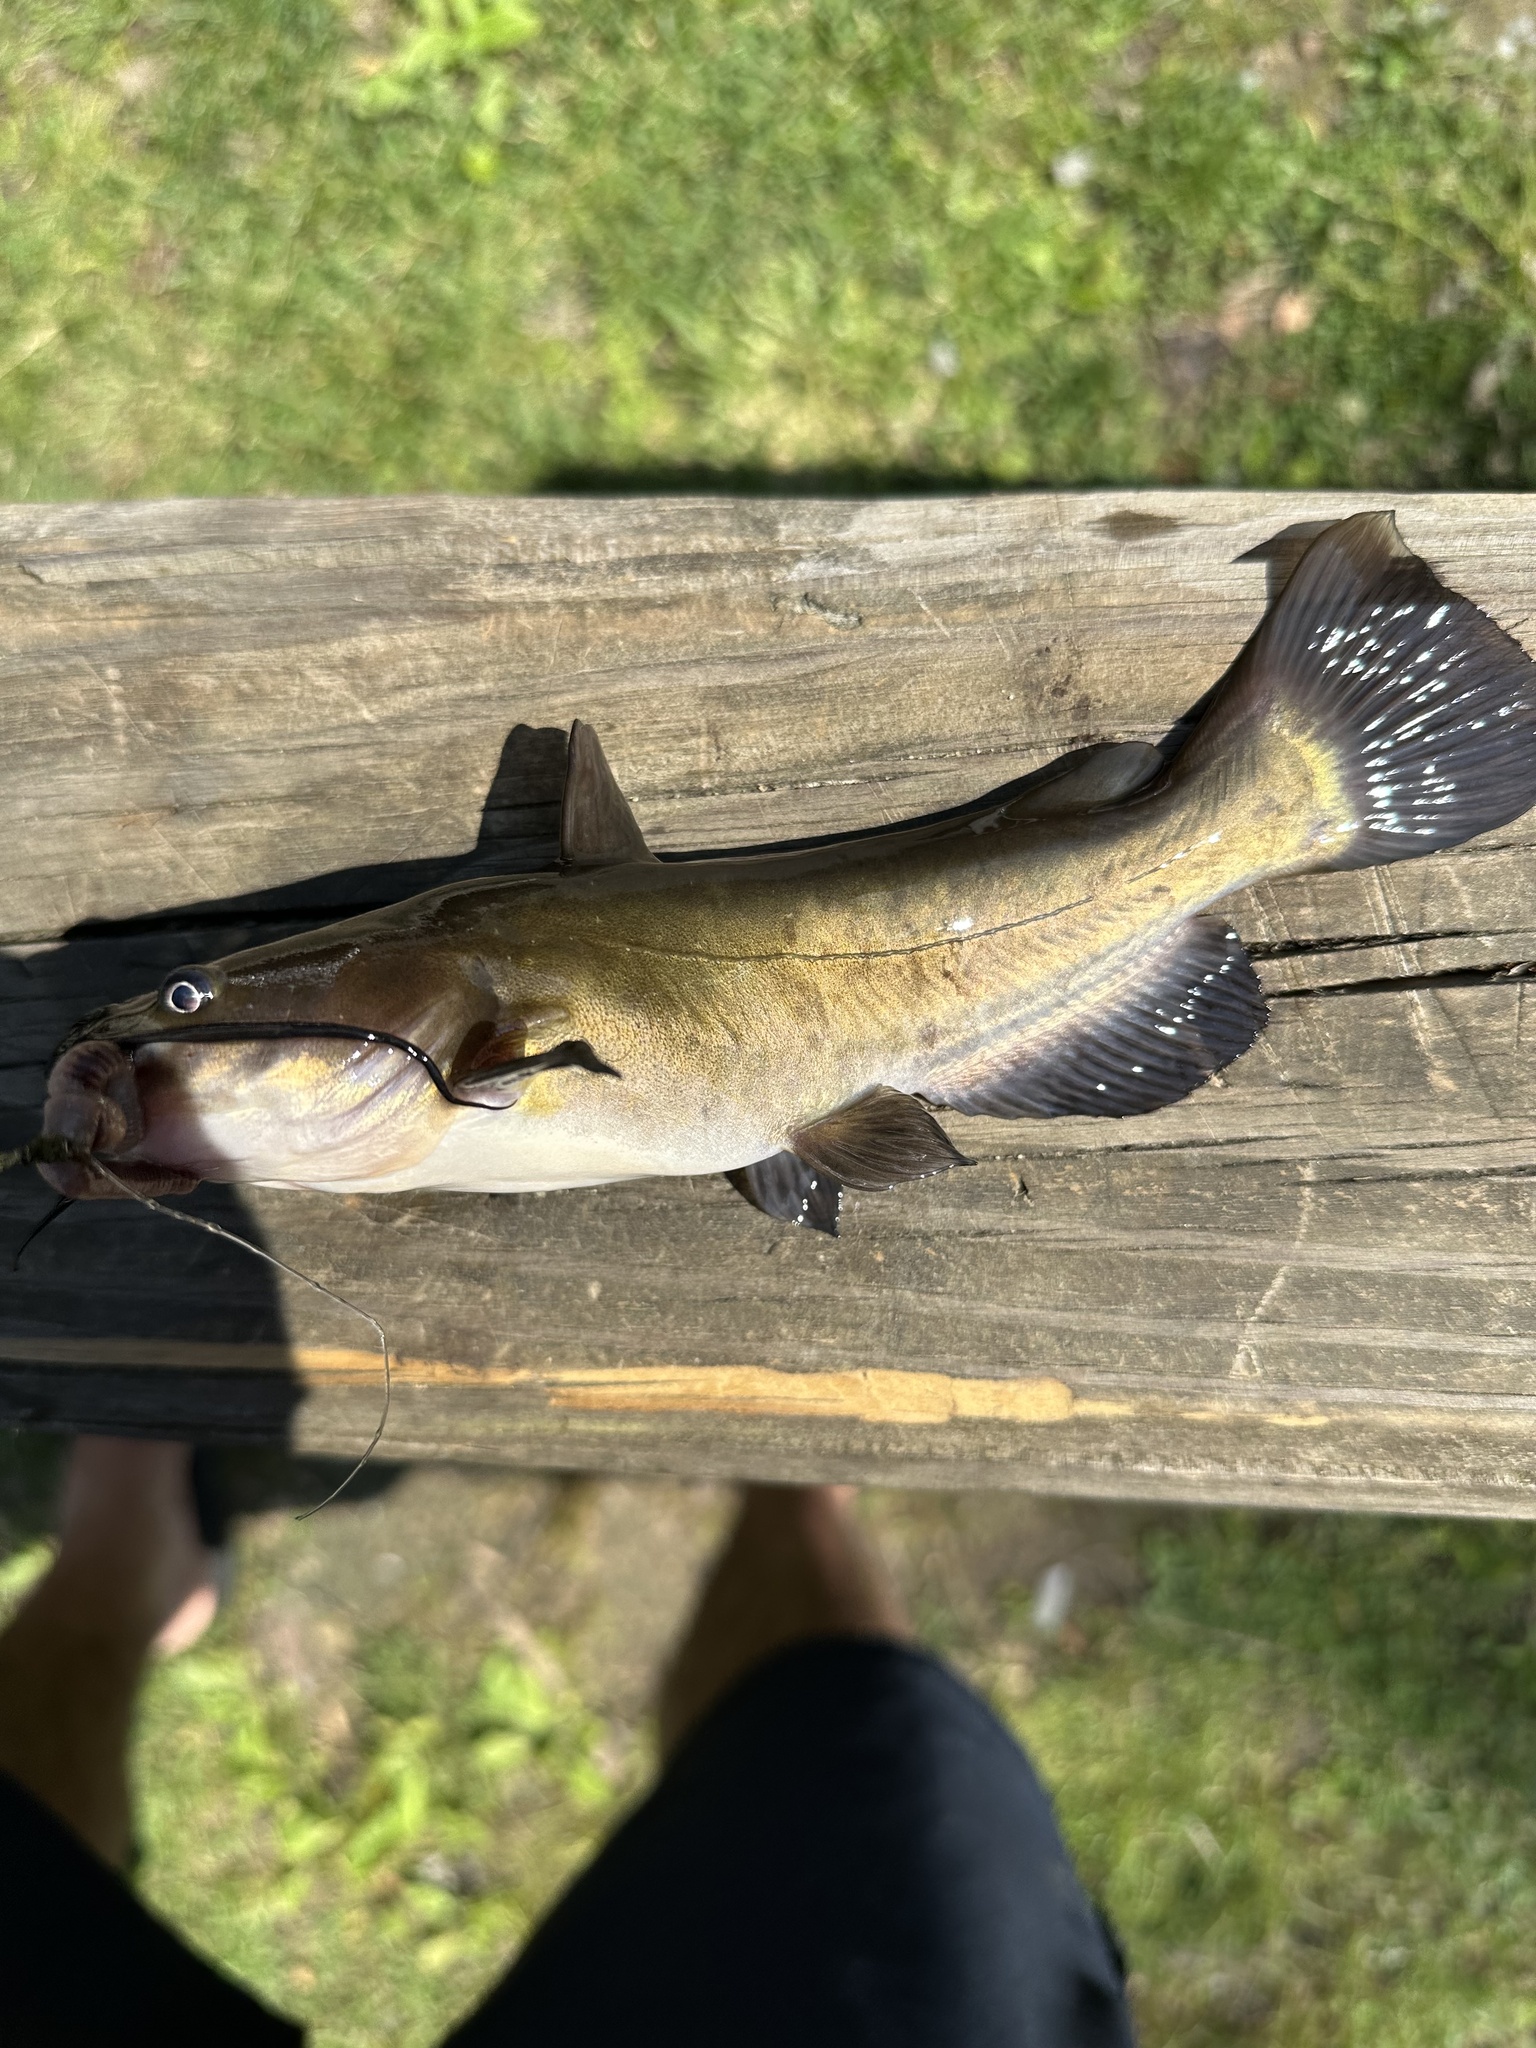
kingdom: Animalia
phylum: Chordata
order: Siluriformes
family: Ictaluridae
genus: Ameiurus
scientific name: Ameiurus nebulosus
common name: Brown bullhead
